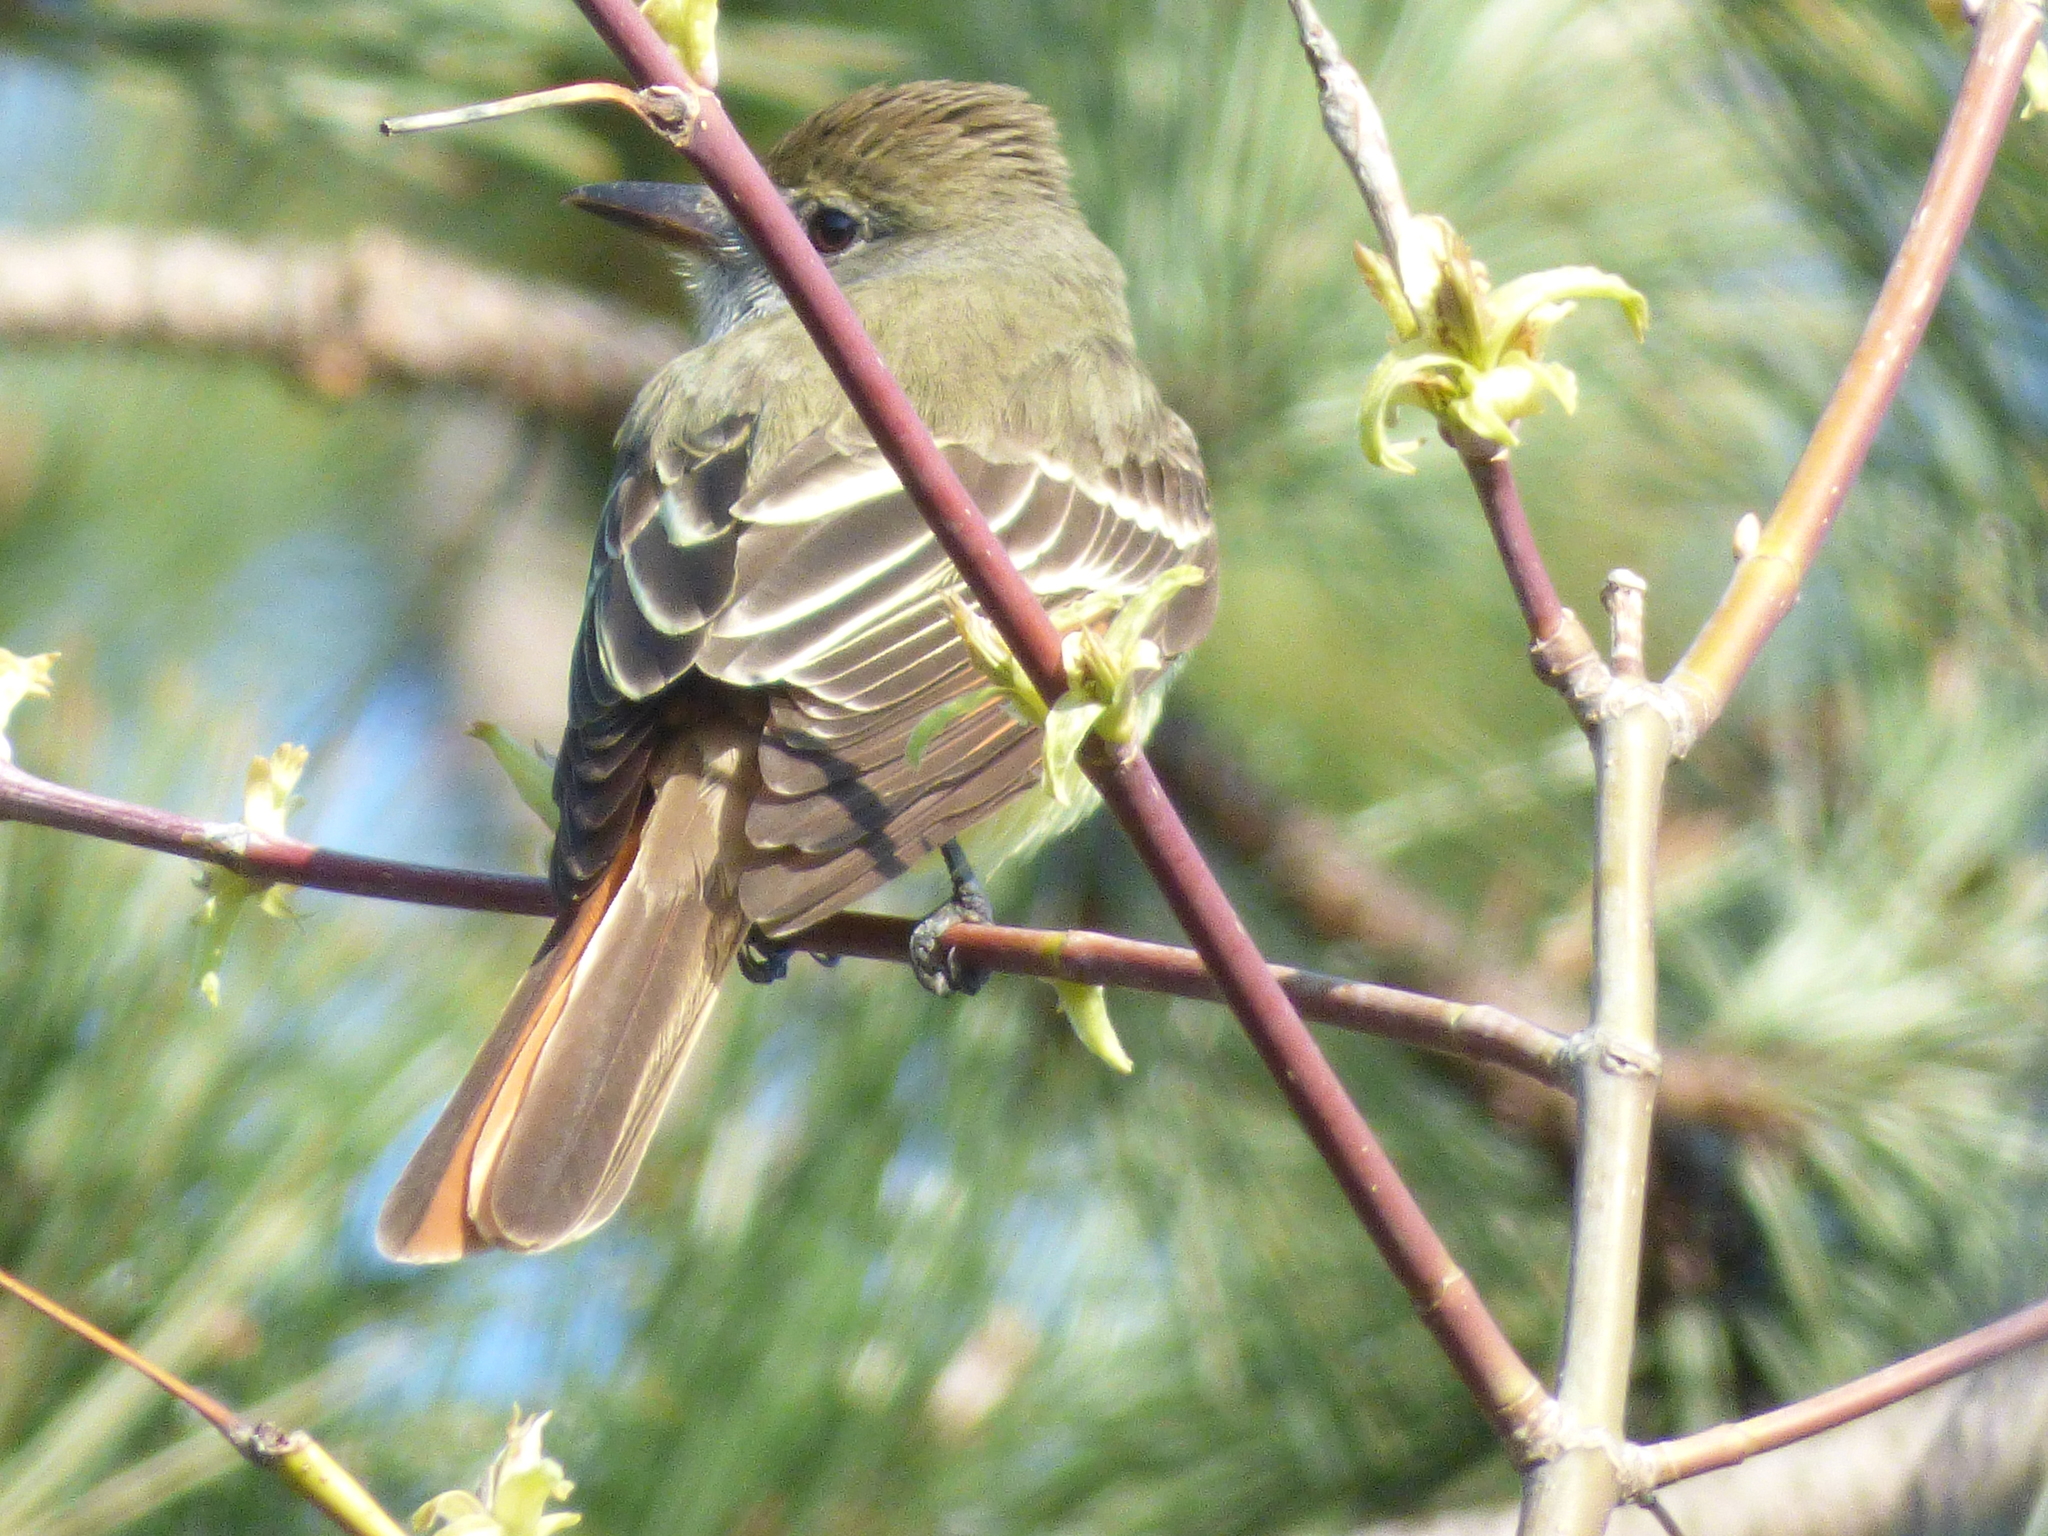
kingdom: Animalia
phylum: Chordata
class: Aves
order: Passeriformes
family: Tyrannidae
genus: Myiarchus
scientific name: Myiarchus crinitus
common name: Great crested flycatcher
